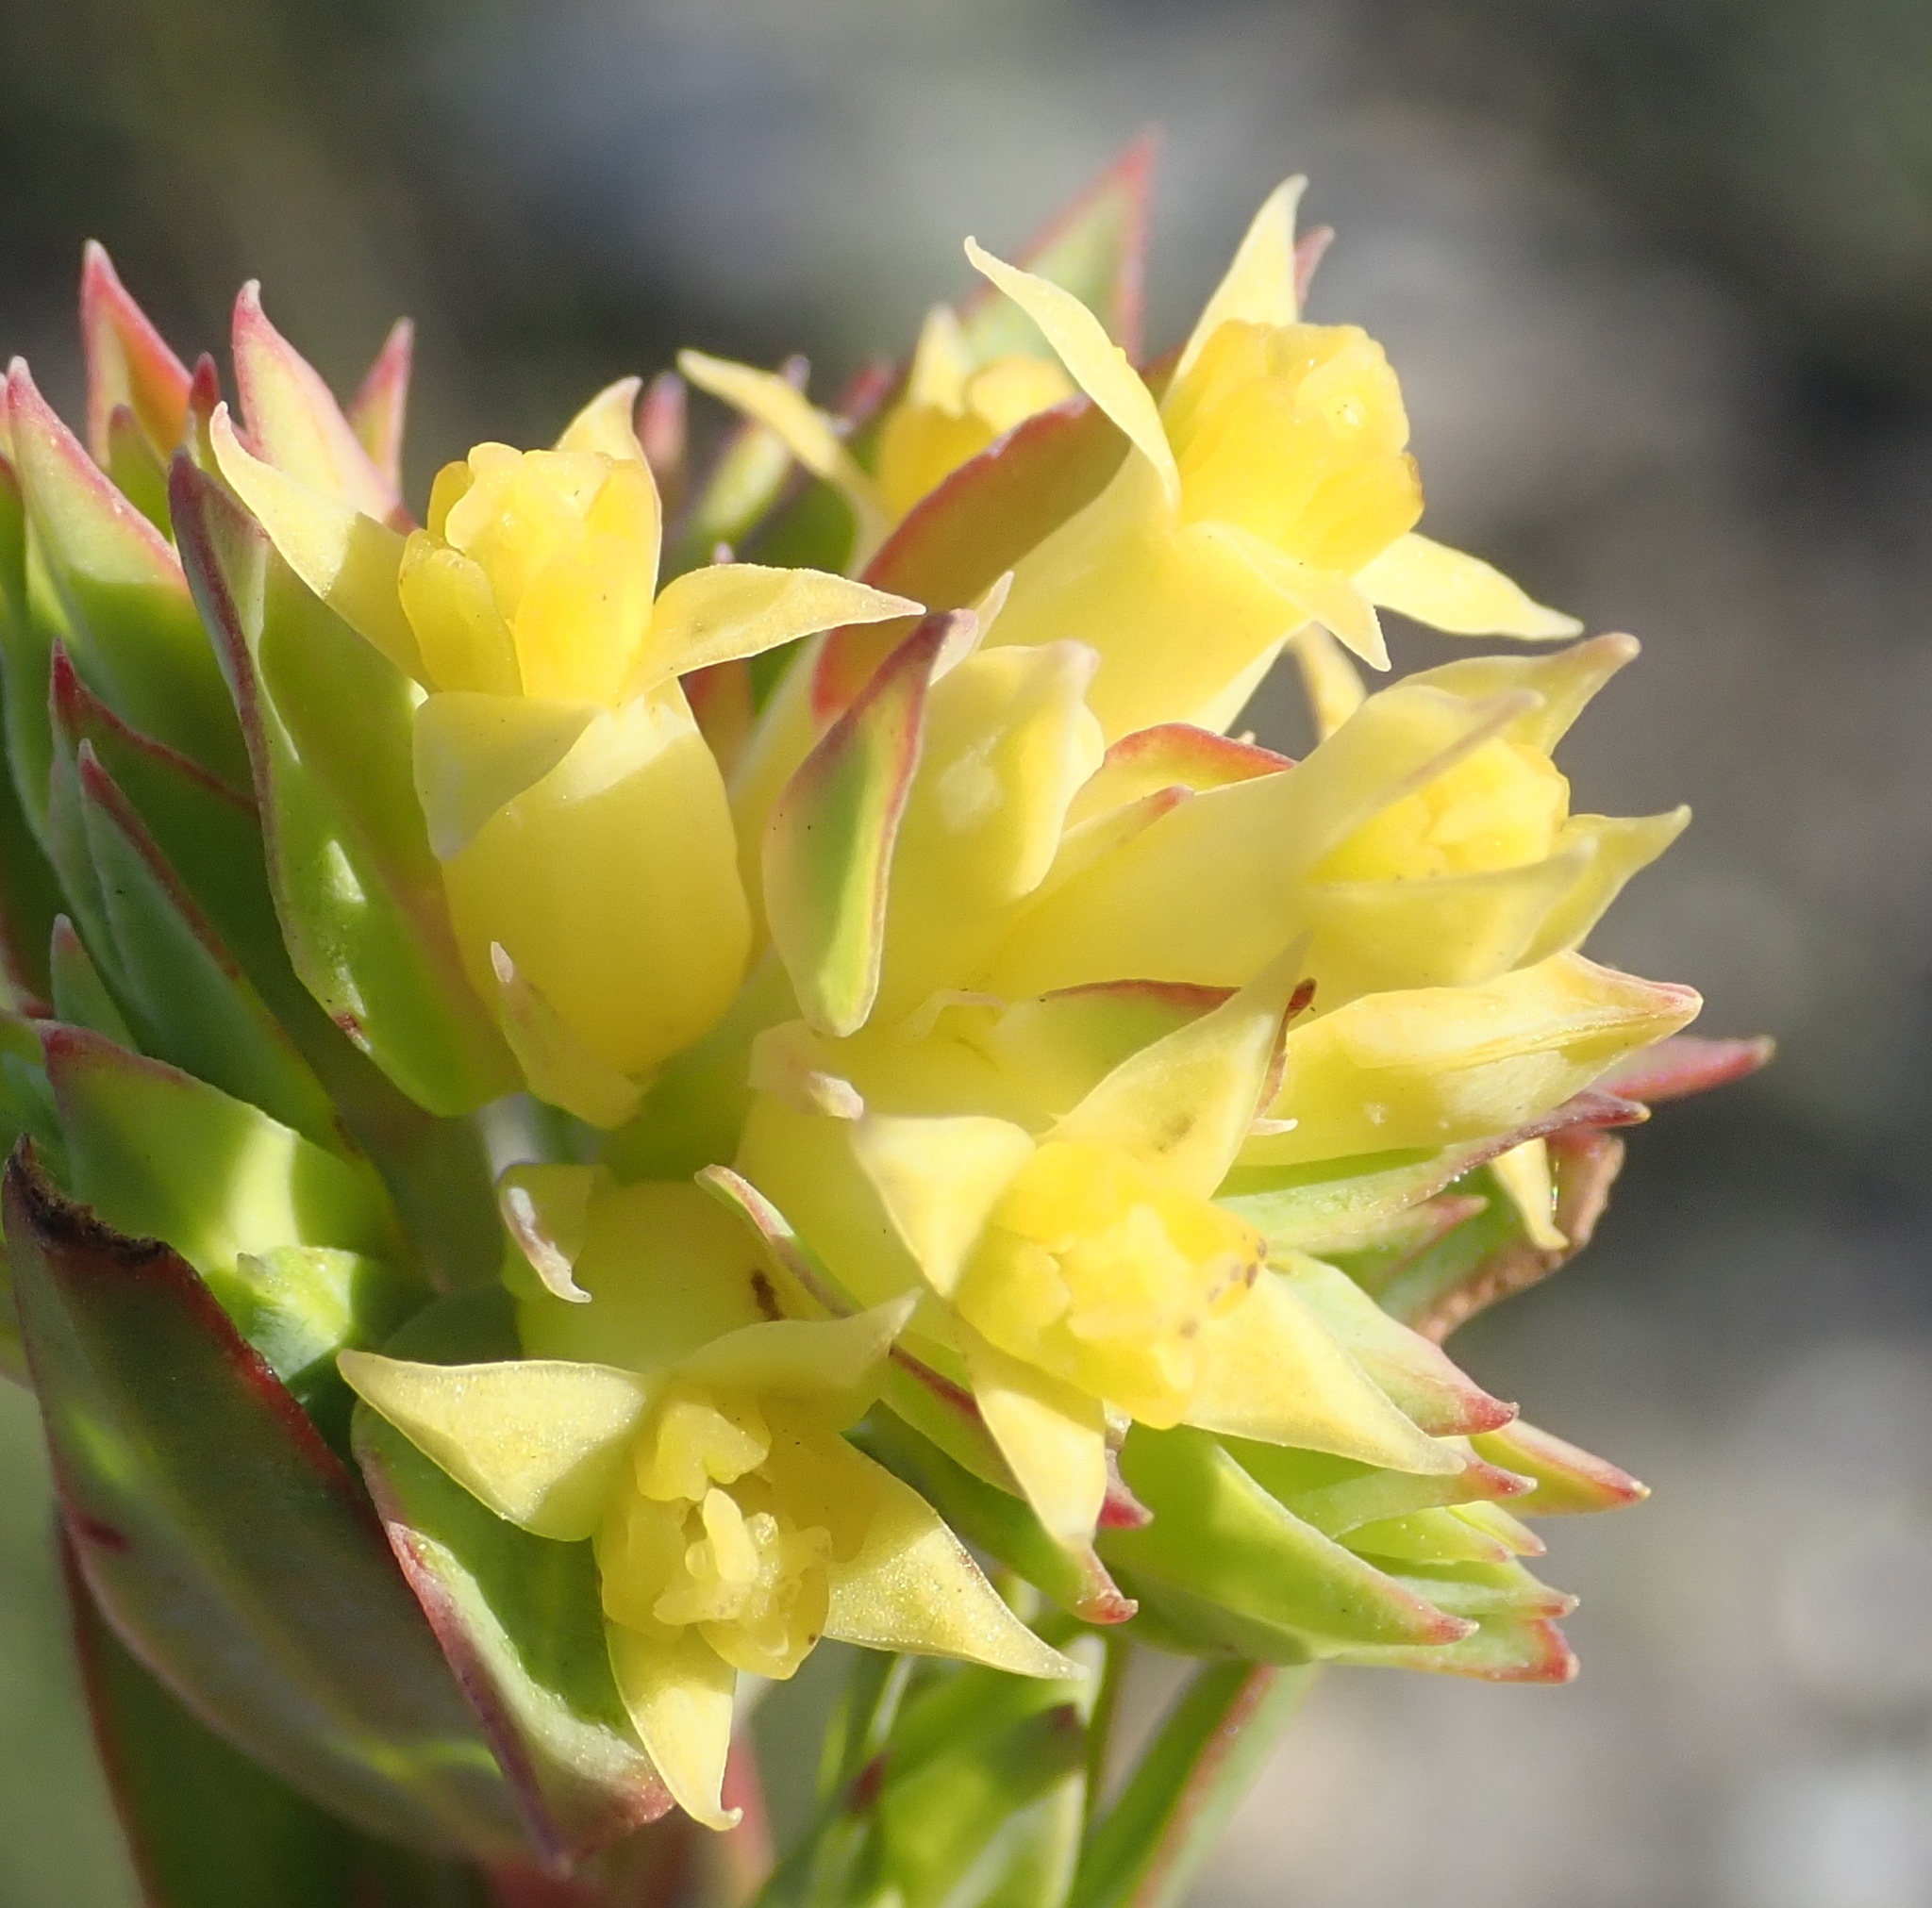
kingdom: Plantae
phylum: Tracheophyta
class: Magnoliopsida
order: Myrtales
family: Penaeaceae
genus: Penaea
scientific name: Penaea acutifolia
